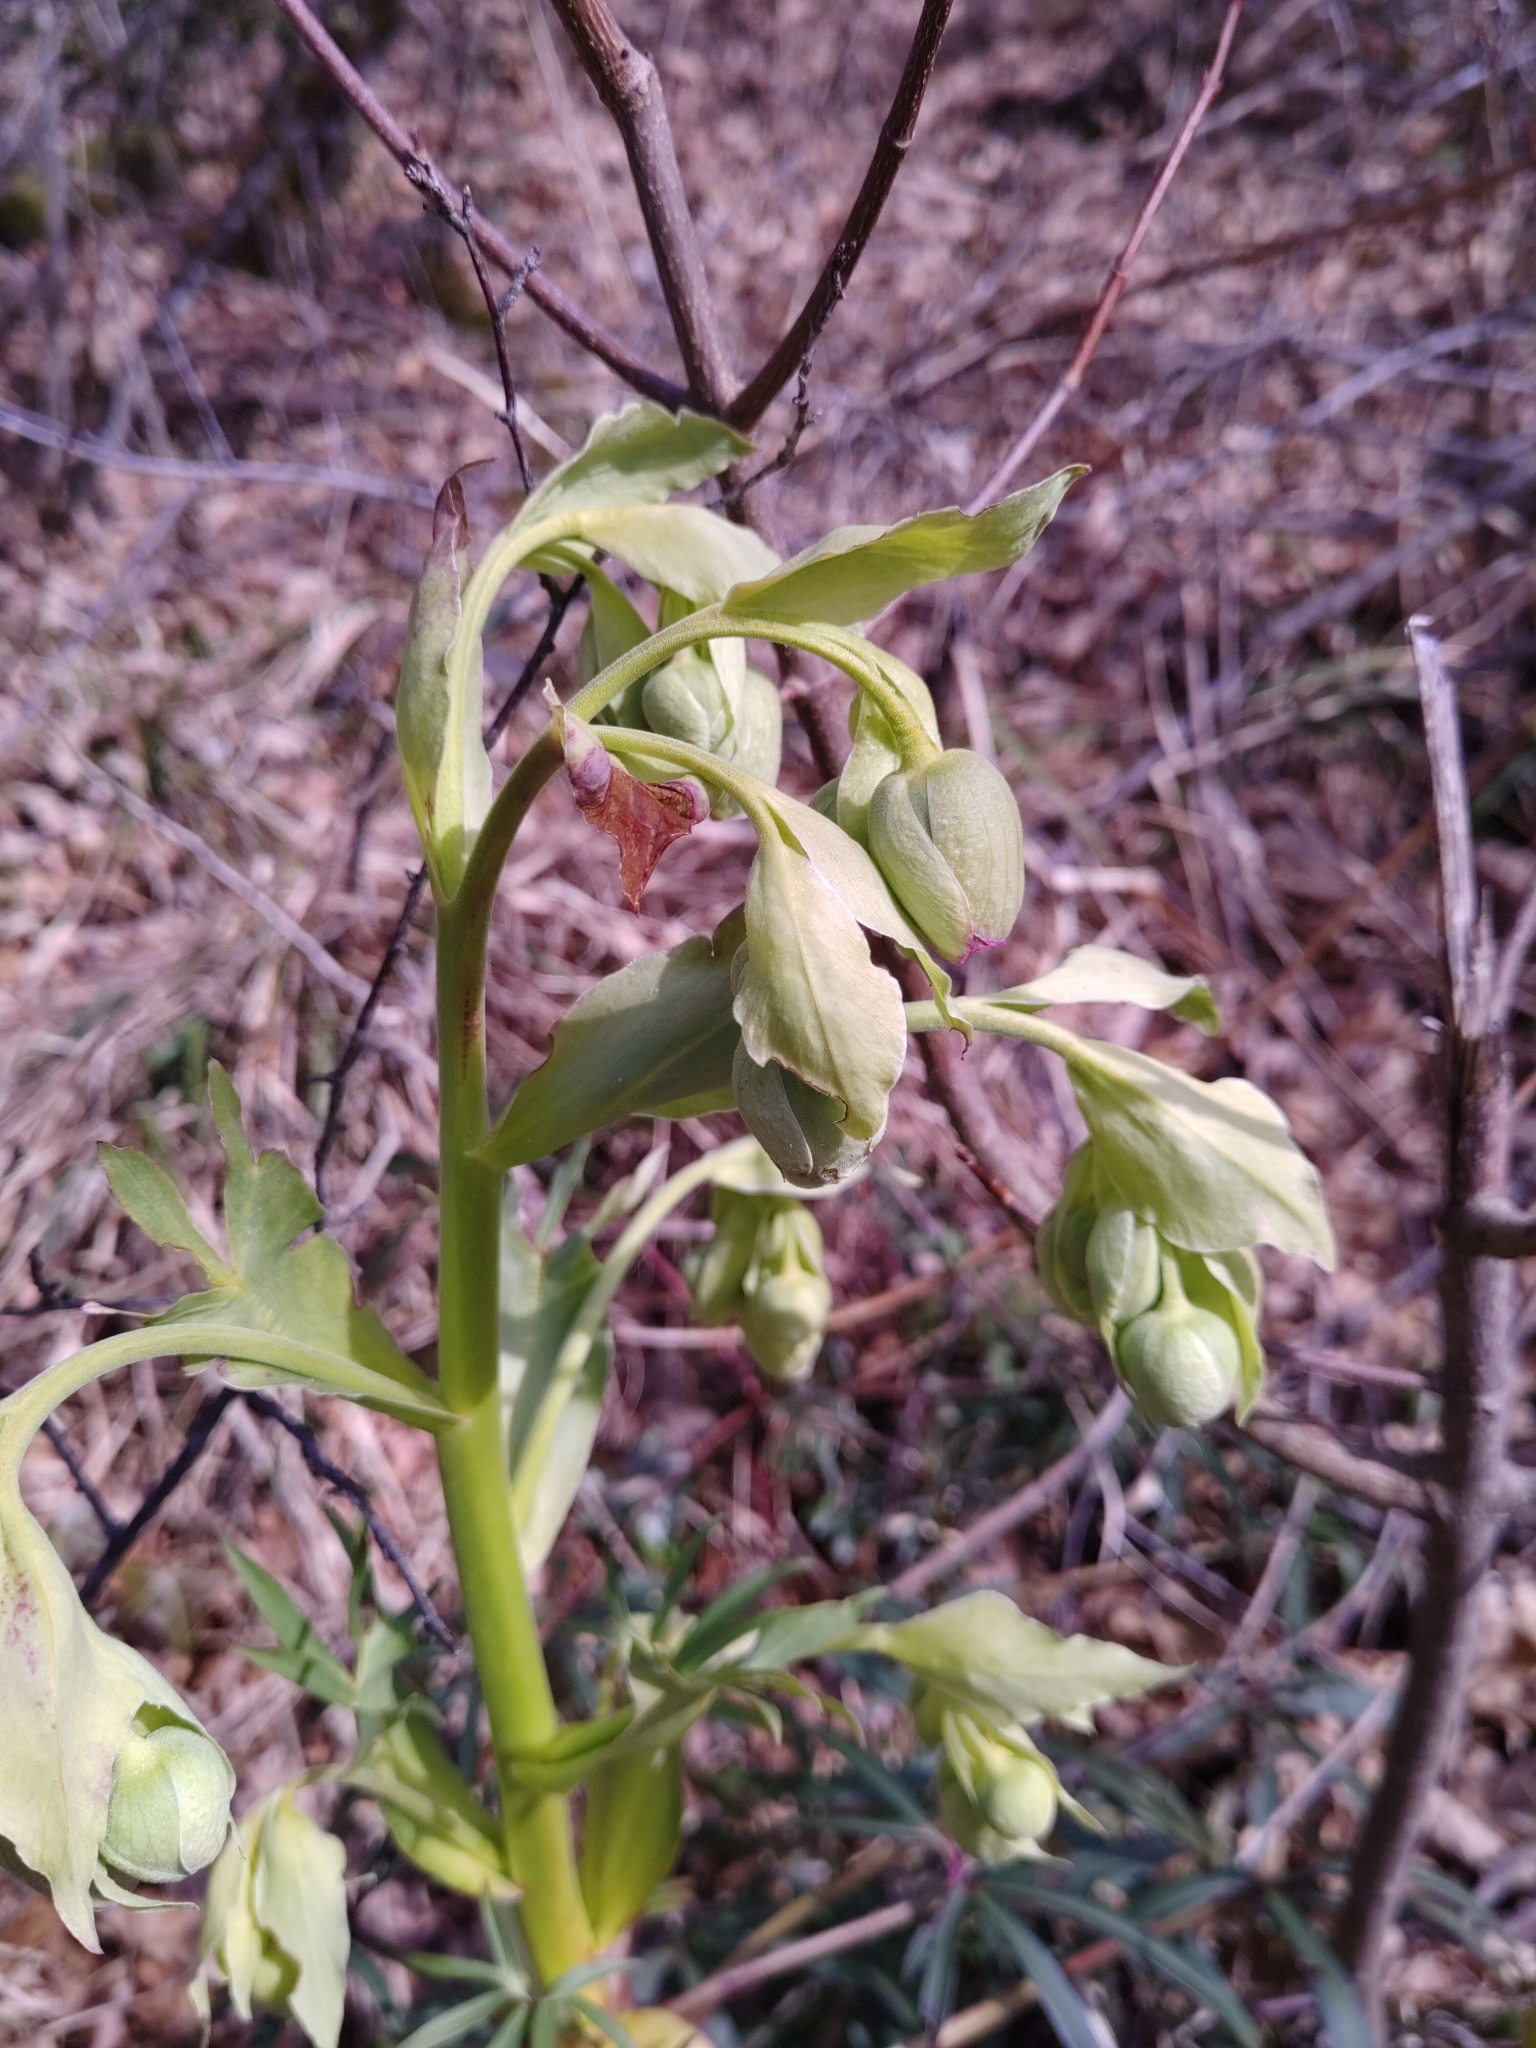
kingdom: Plantae
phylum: Tracheophyta
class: Magnoliopsida
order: Ranunculales
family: Ranunculaceae
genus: Helleborus
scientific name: Helleborus foetidus
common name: Stinking hellebore
